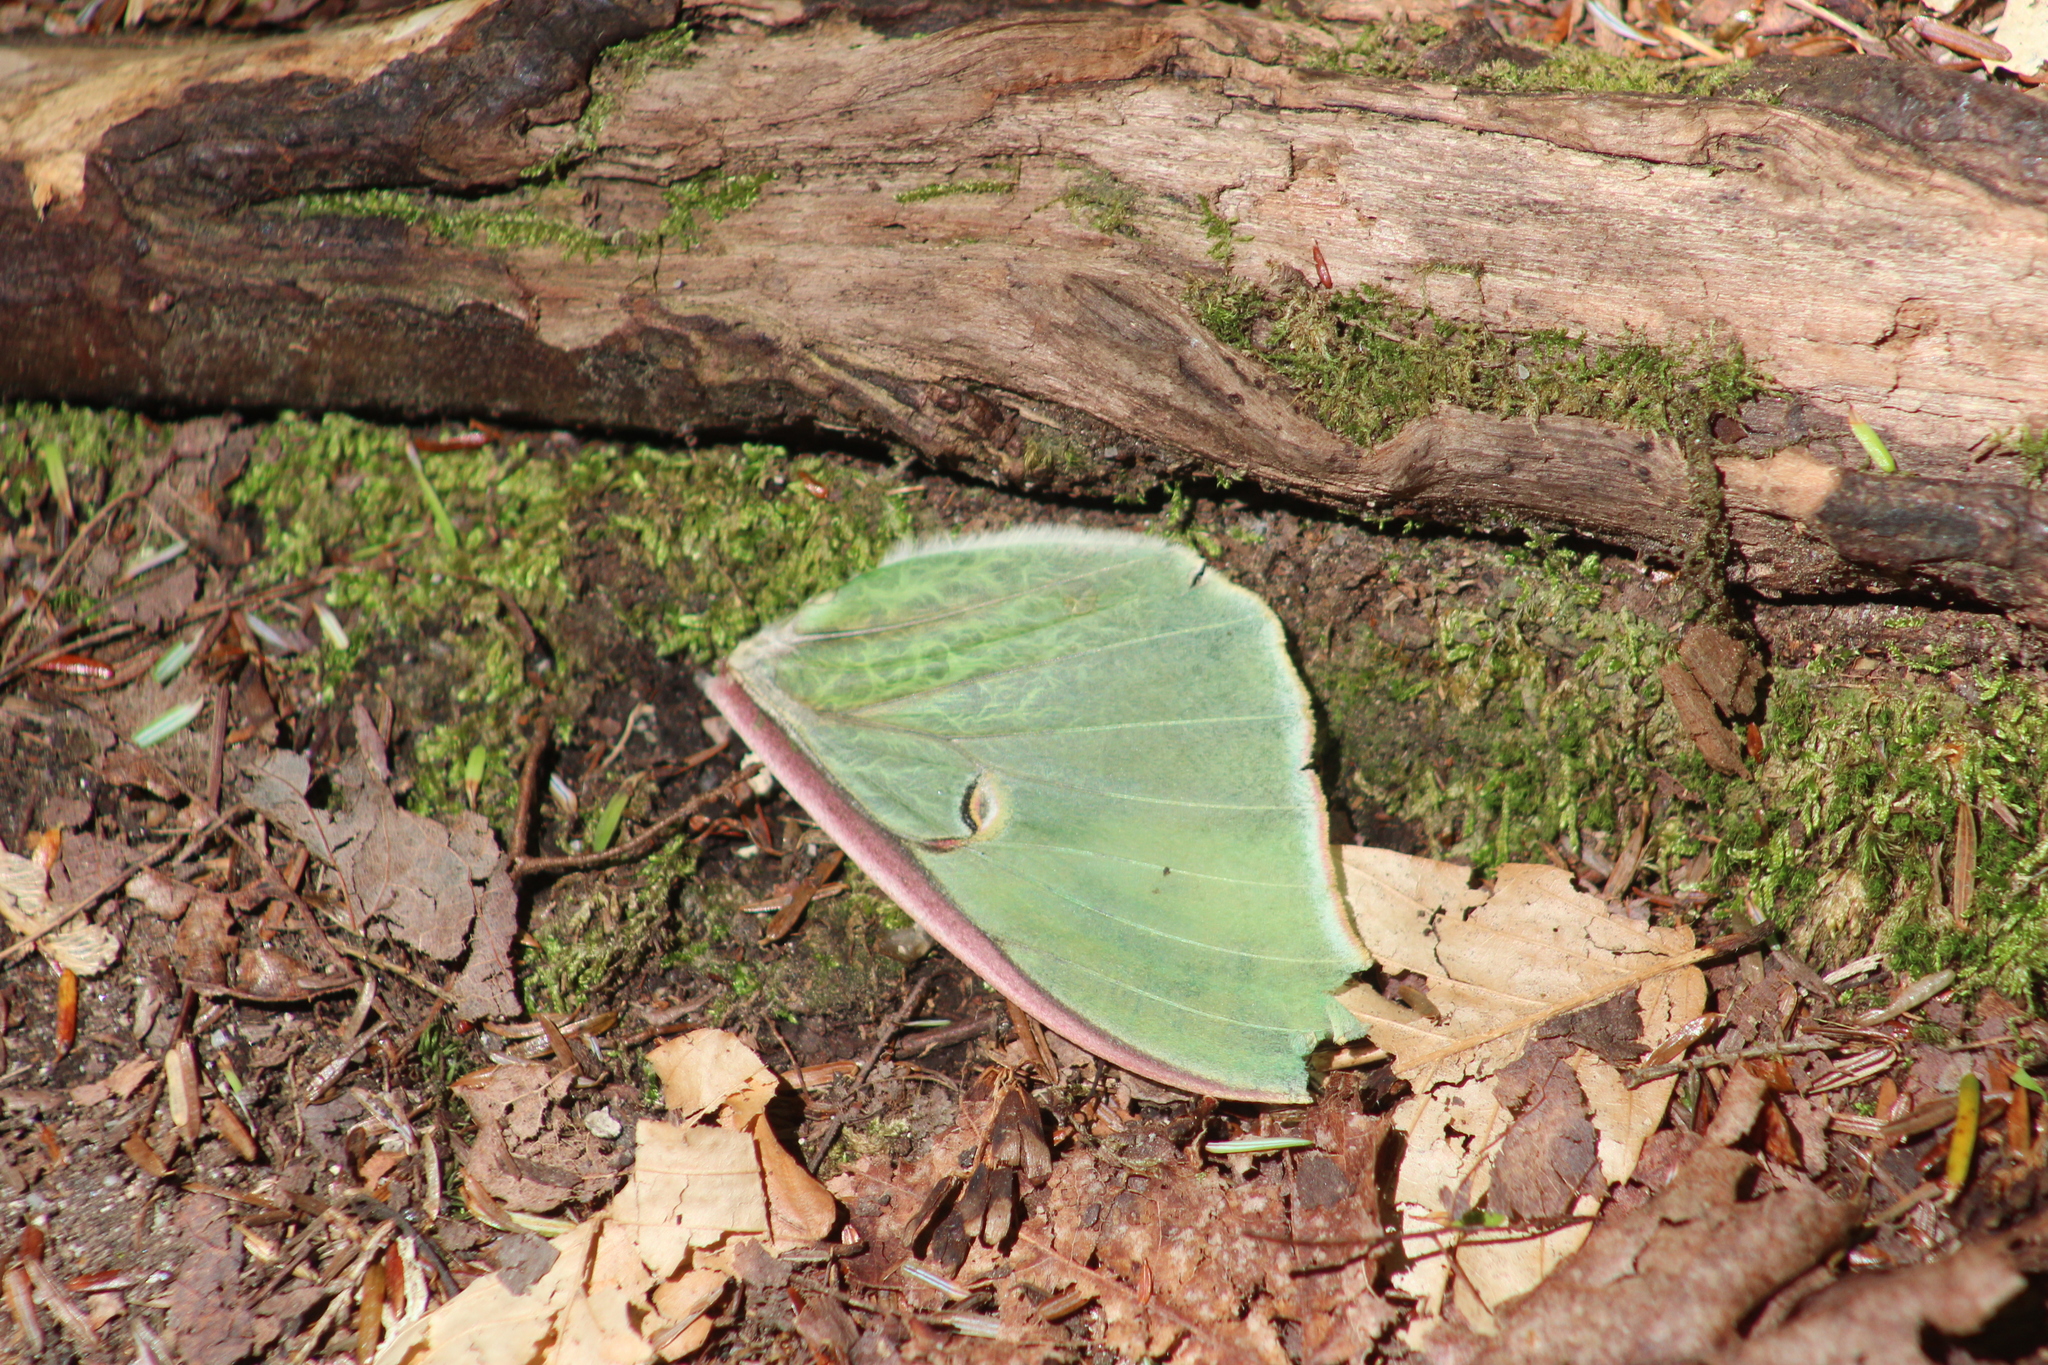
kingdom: Animalia
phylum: Arthropoda
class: Insecta
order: Lepidoptera
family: Saturniidae
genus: Actias
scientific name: Actias luna
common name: Luna moth
